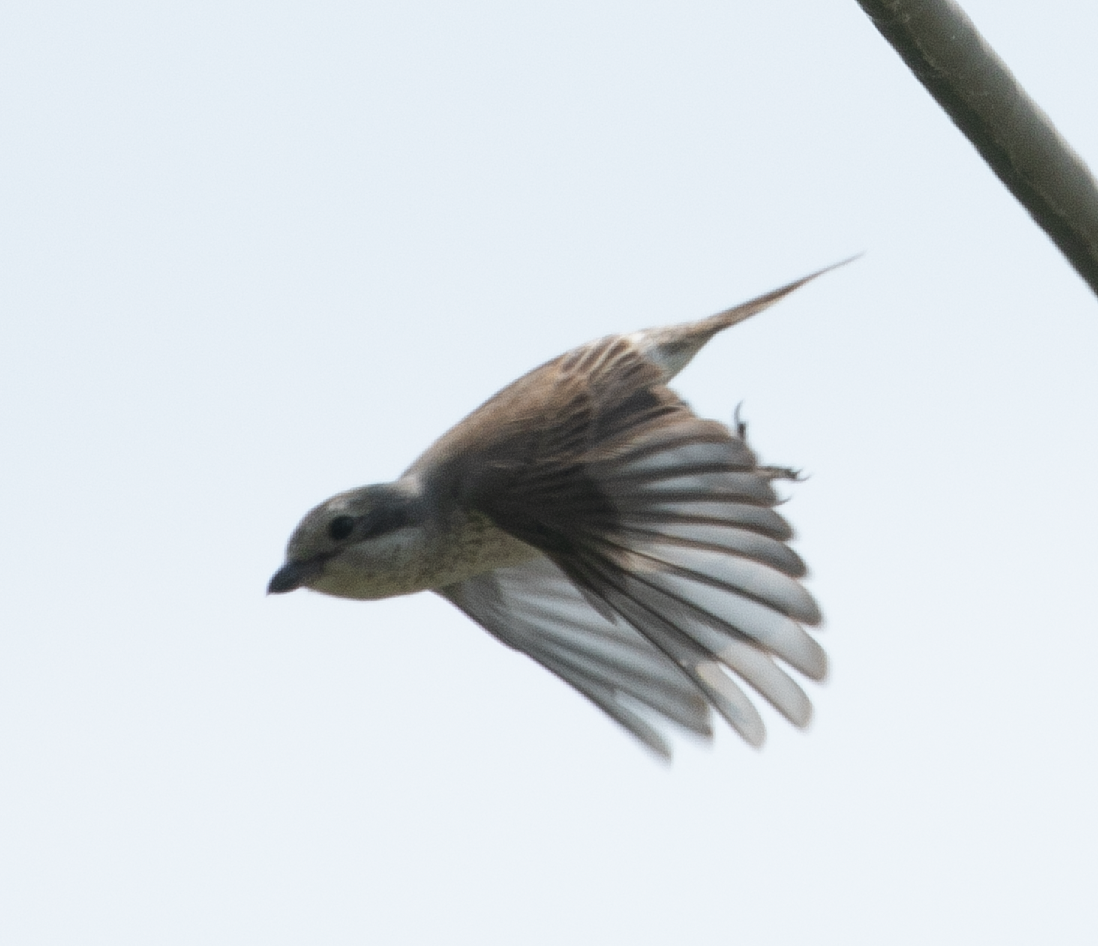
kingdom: Animalia
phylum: Chordata
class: Aves
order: Passeriformes
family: Laniidae
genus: Lanius
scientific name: Lanius collurio
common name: Red-backed shrike
